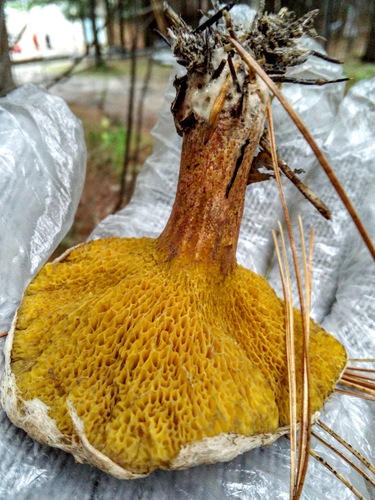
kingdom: Fungi
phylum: Basidiomycota
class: Agaricomycetes
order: Boletales
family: Suillaceae
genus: Suillus
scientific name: Suillus americanus
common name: Chicken fat mushroom
